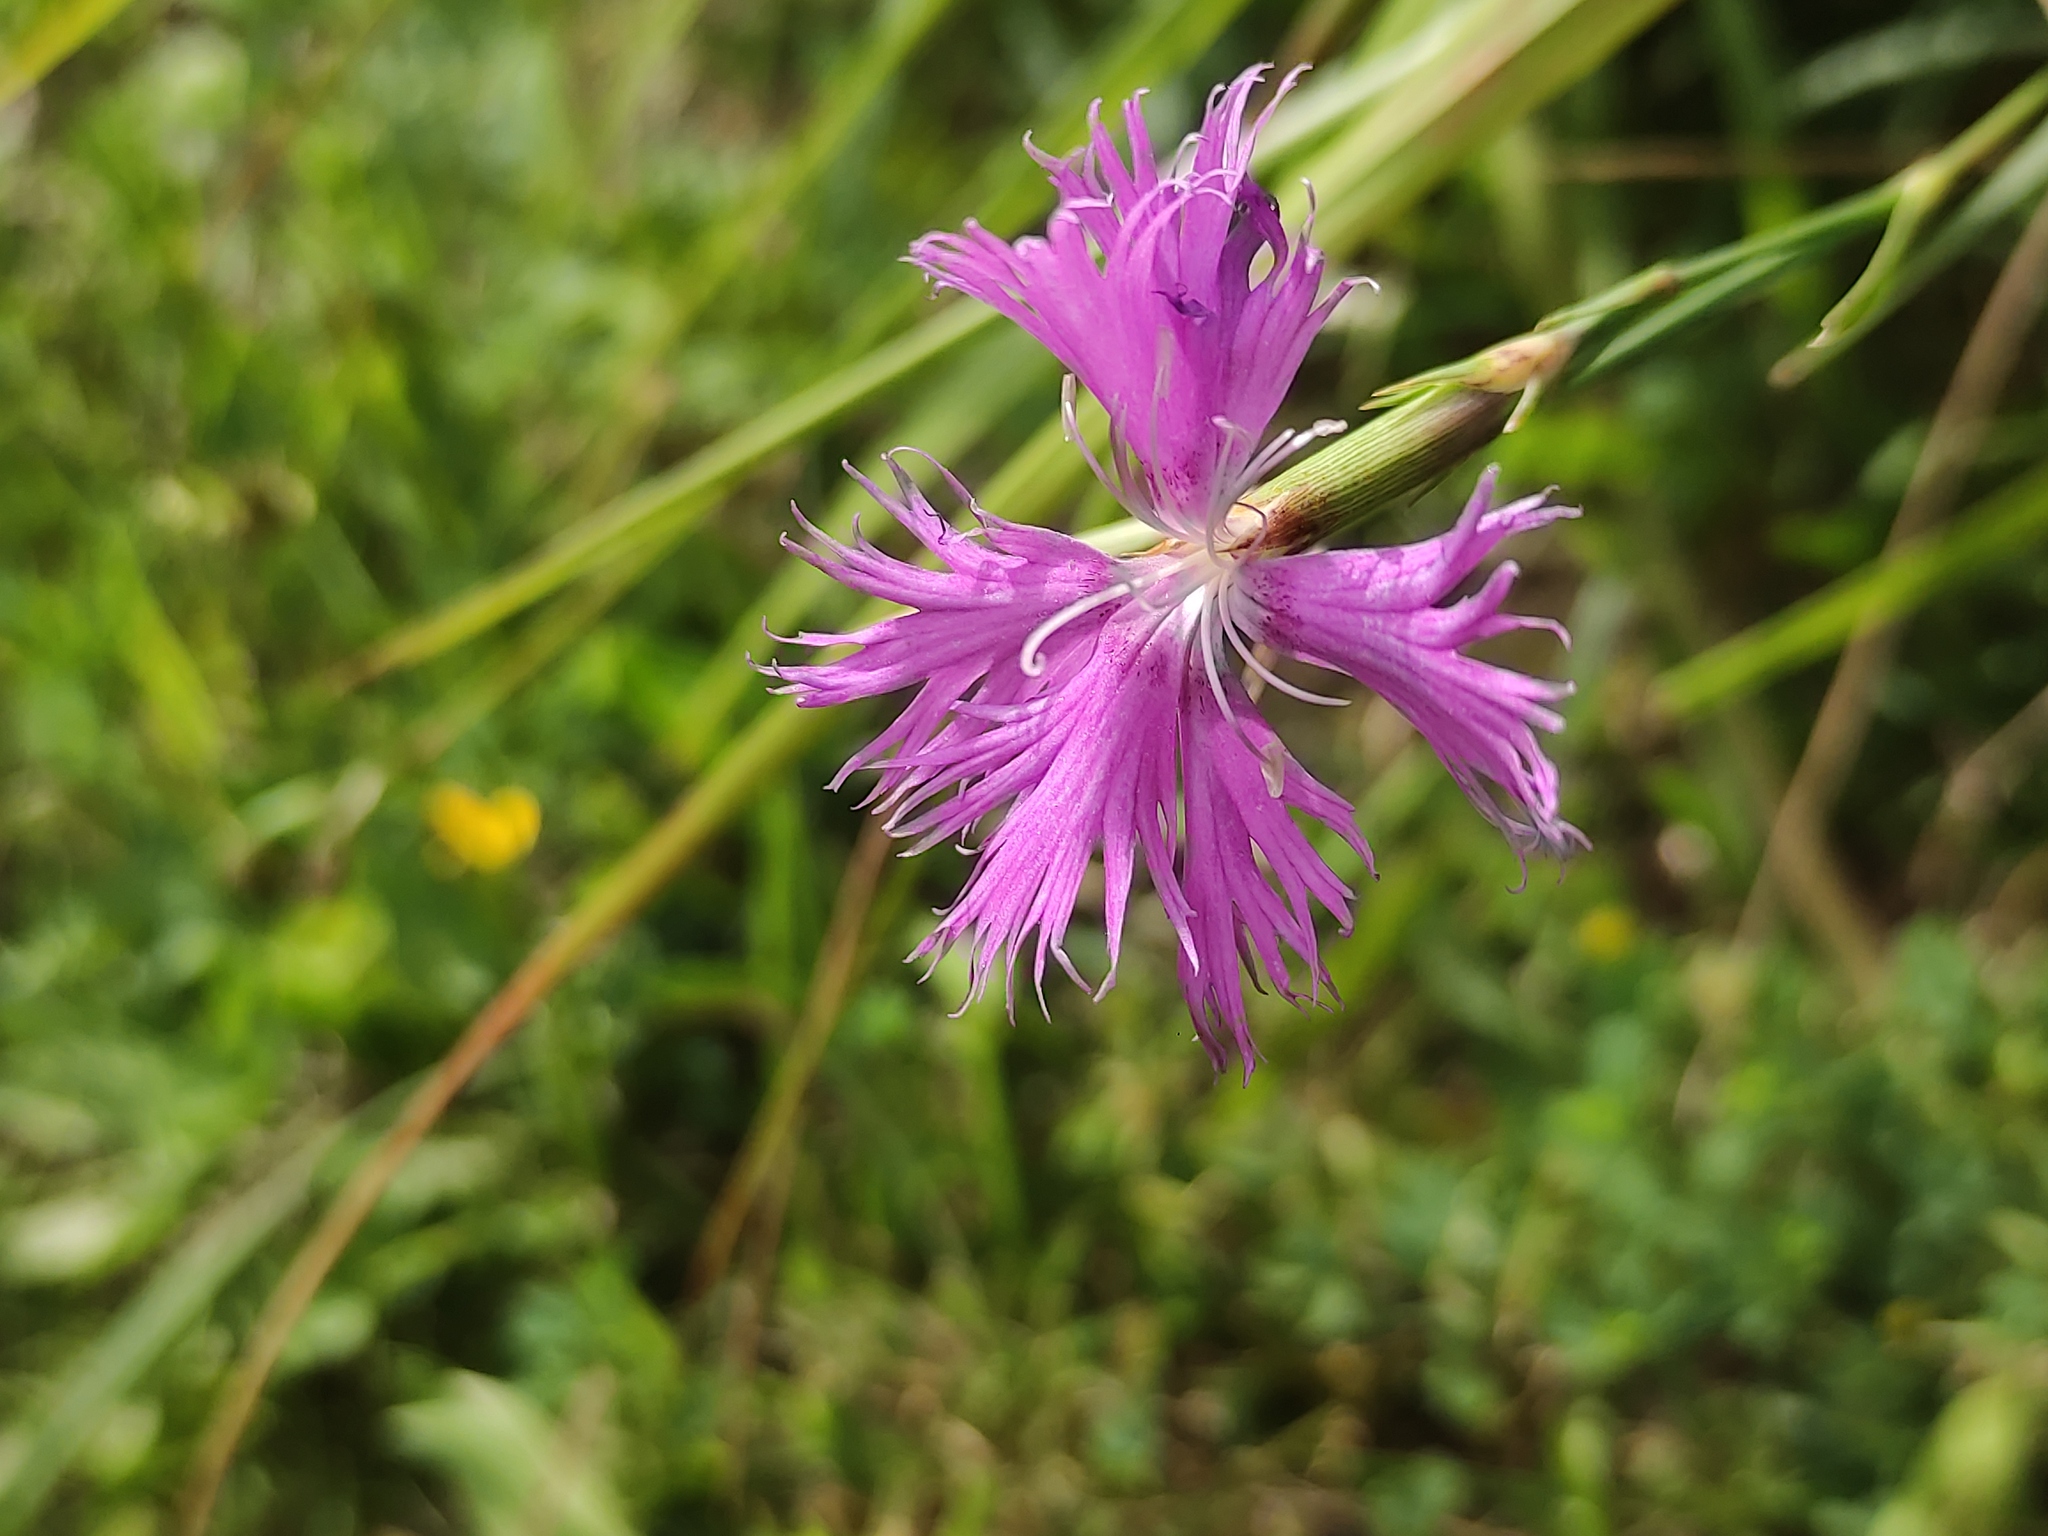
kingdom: Plantae
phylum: Tracheophyta
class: Magnoliopsida
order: Caryophyllales
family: Caryophyllaceae
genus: Dianthus
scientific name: Dianthus hyssopifolius
